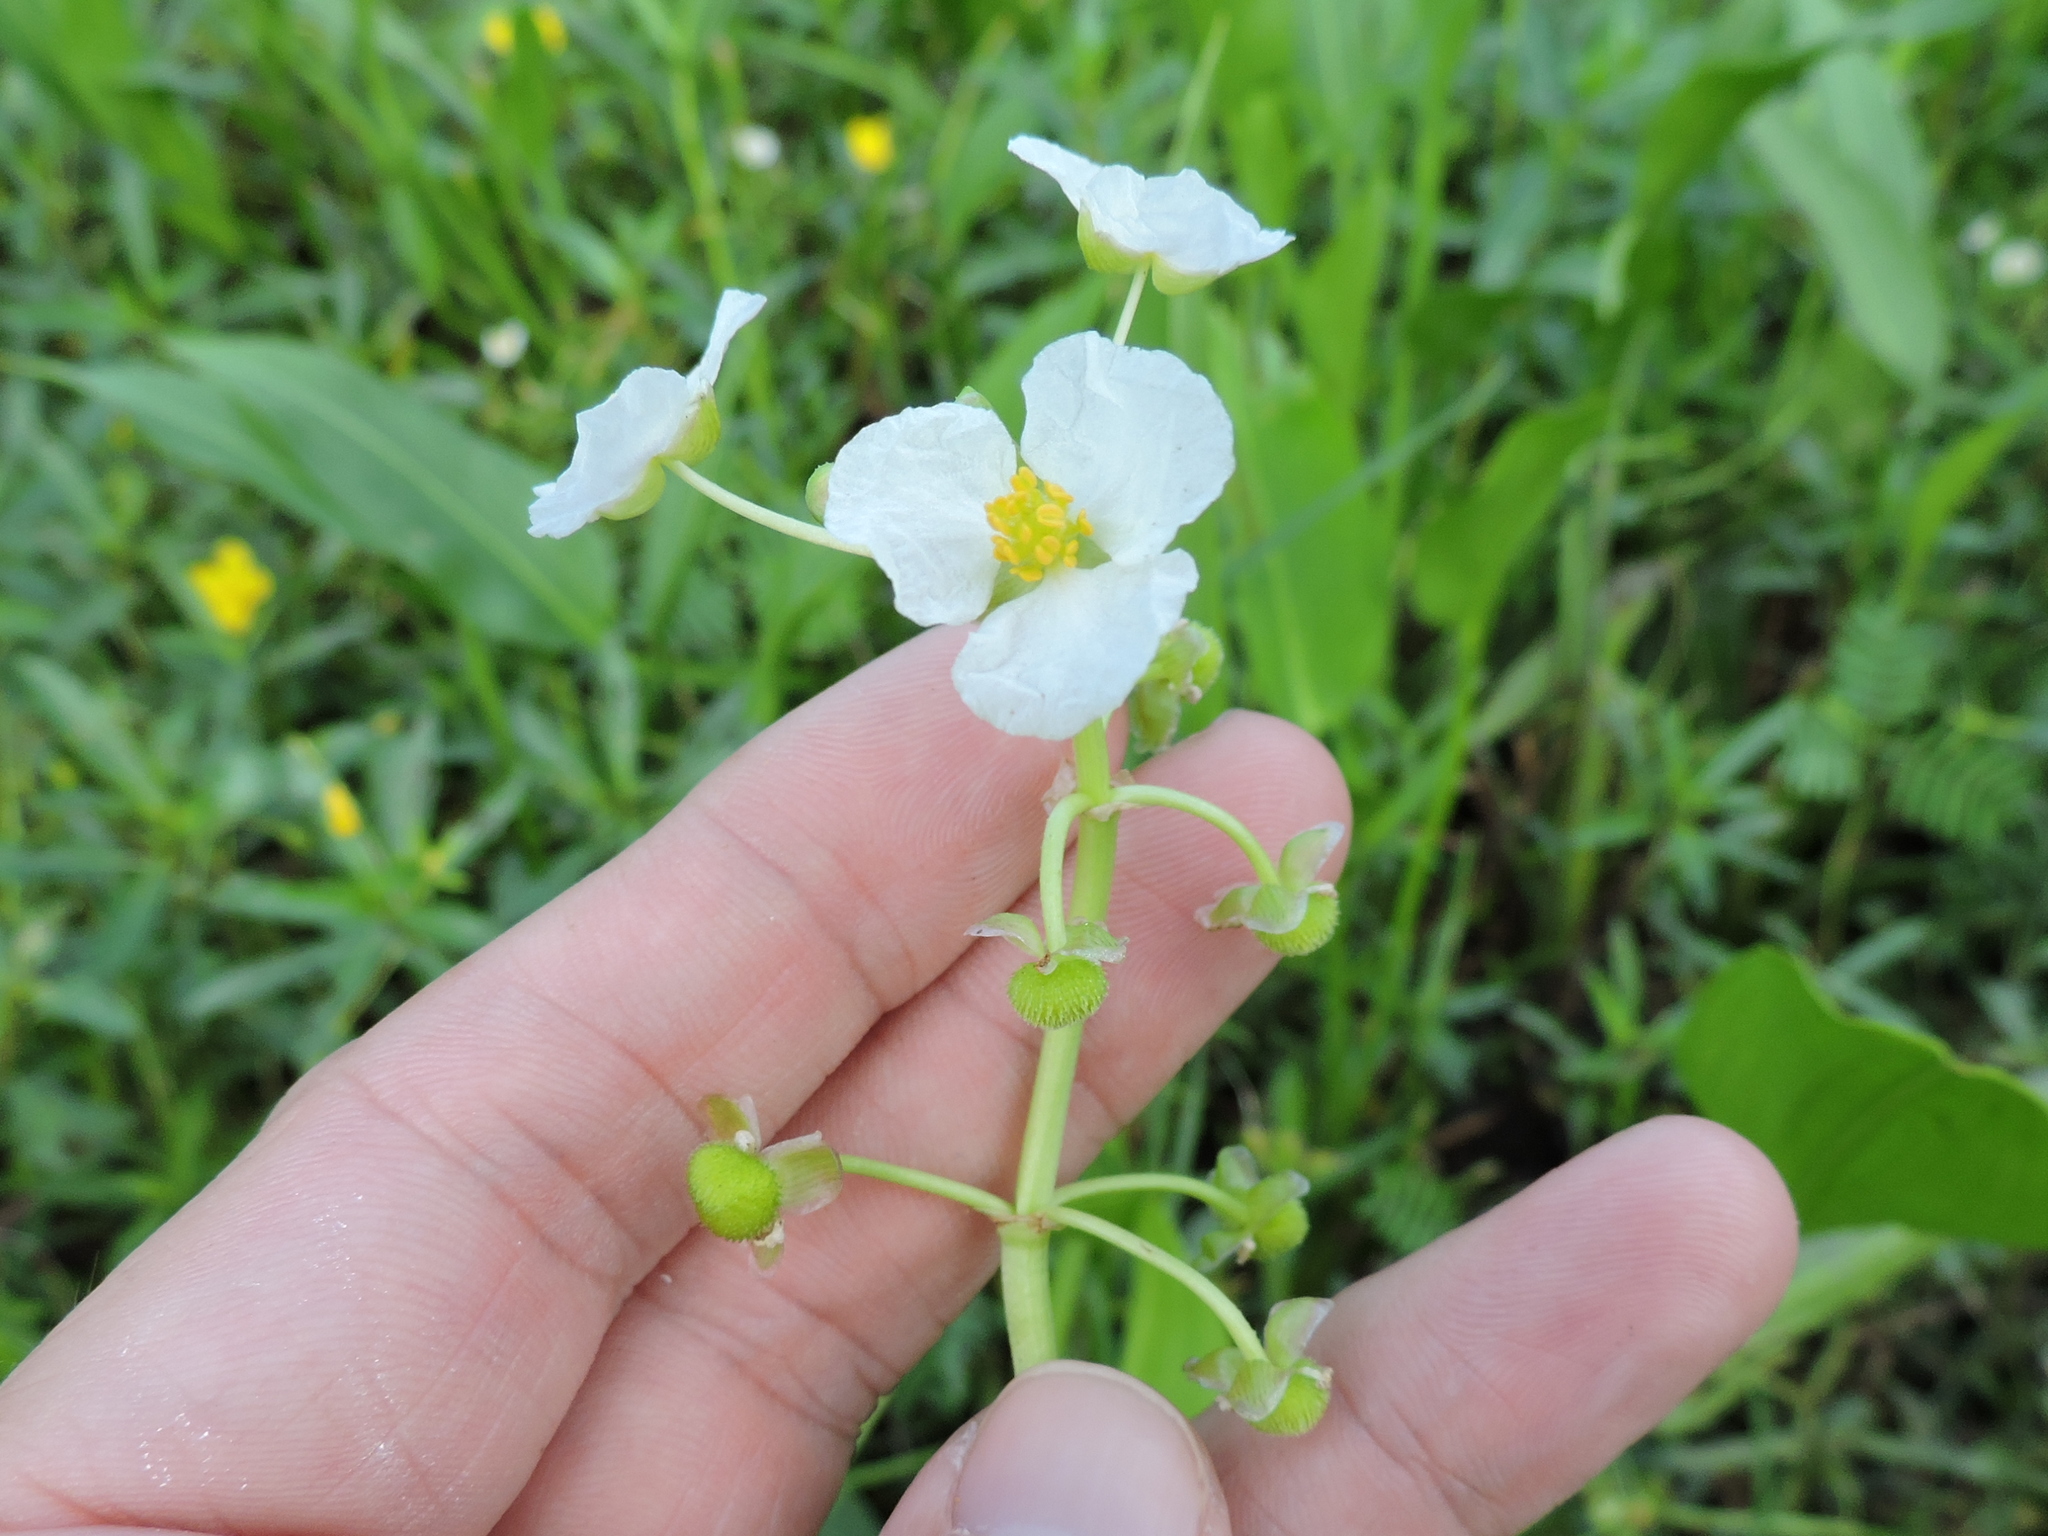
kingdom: Plantae
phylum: Tracheophyta
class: Liliopsida
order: Alismatales
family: Alismataceae
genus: Sagittaria
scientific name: Sagittaria platyphylla
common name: Broad-leaf arrowhead
